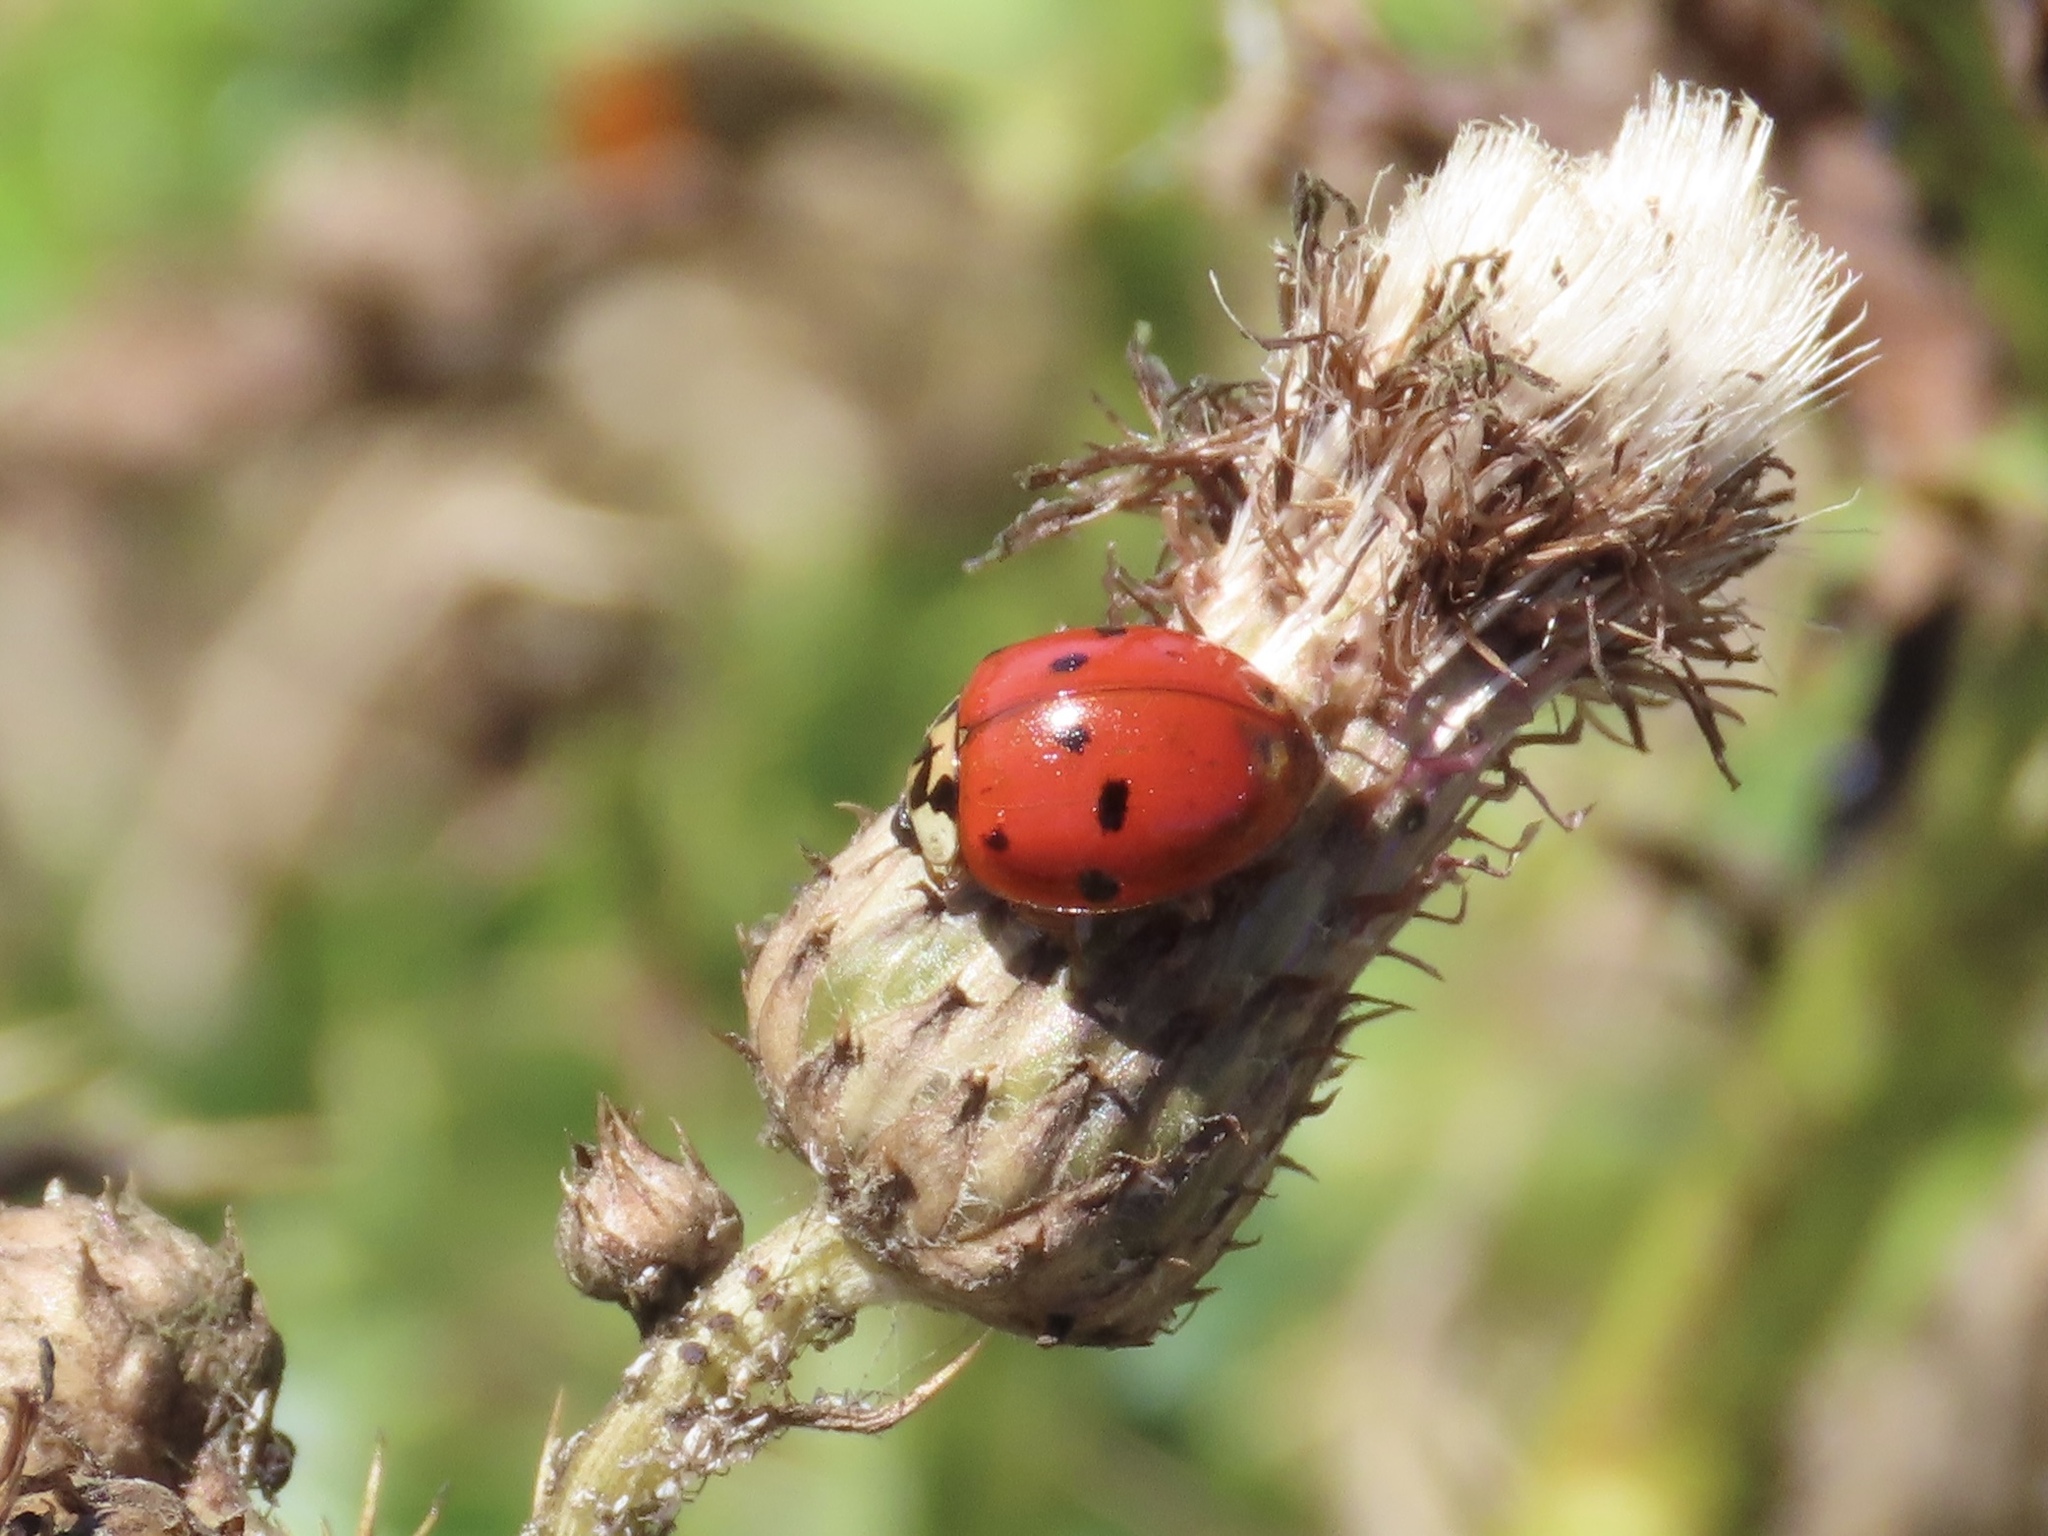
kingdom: Animalia
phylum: Arthropoda
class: Insecta
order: Coleoptera
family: Coccinellidae
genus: Harmonia
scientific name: Harmonia axyridis
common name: Harlequin ladybird
